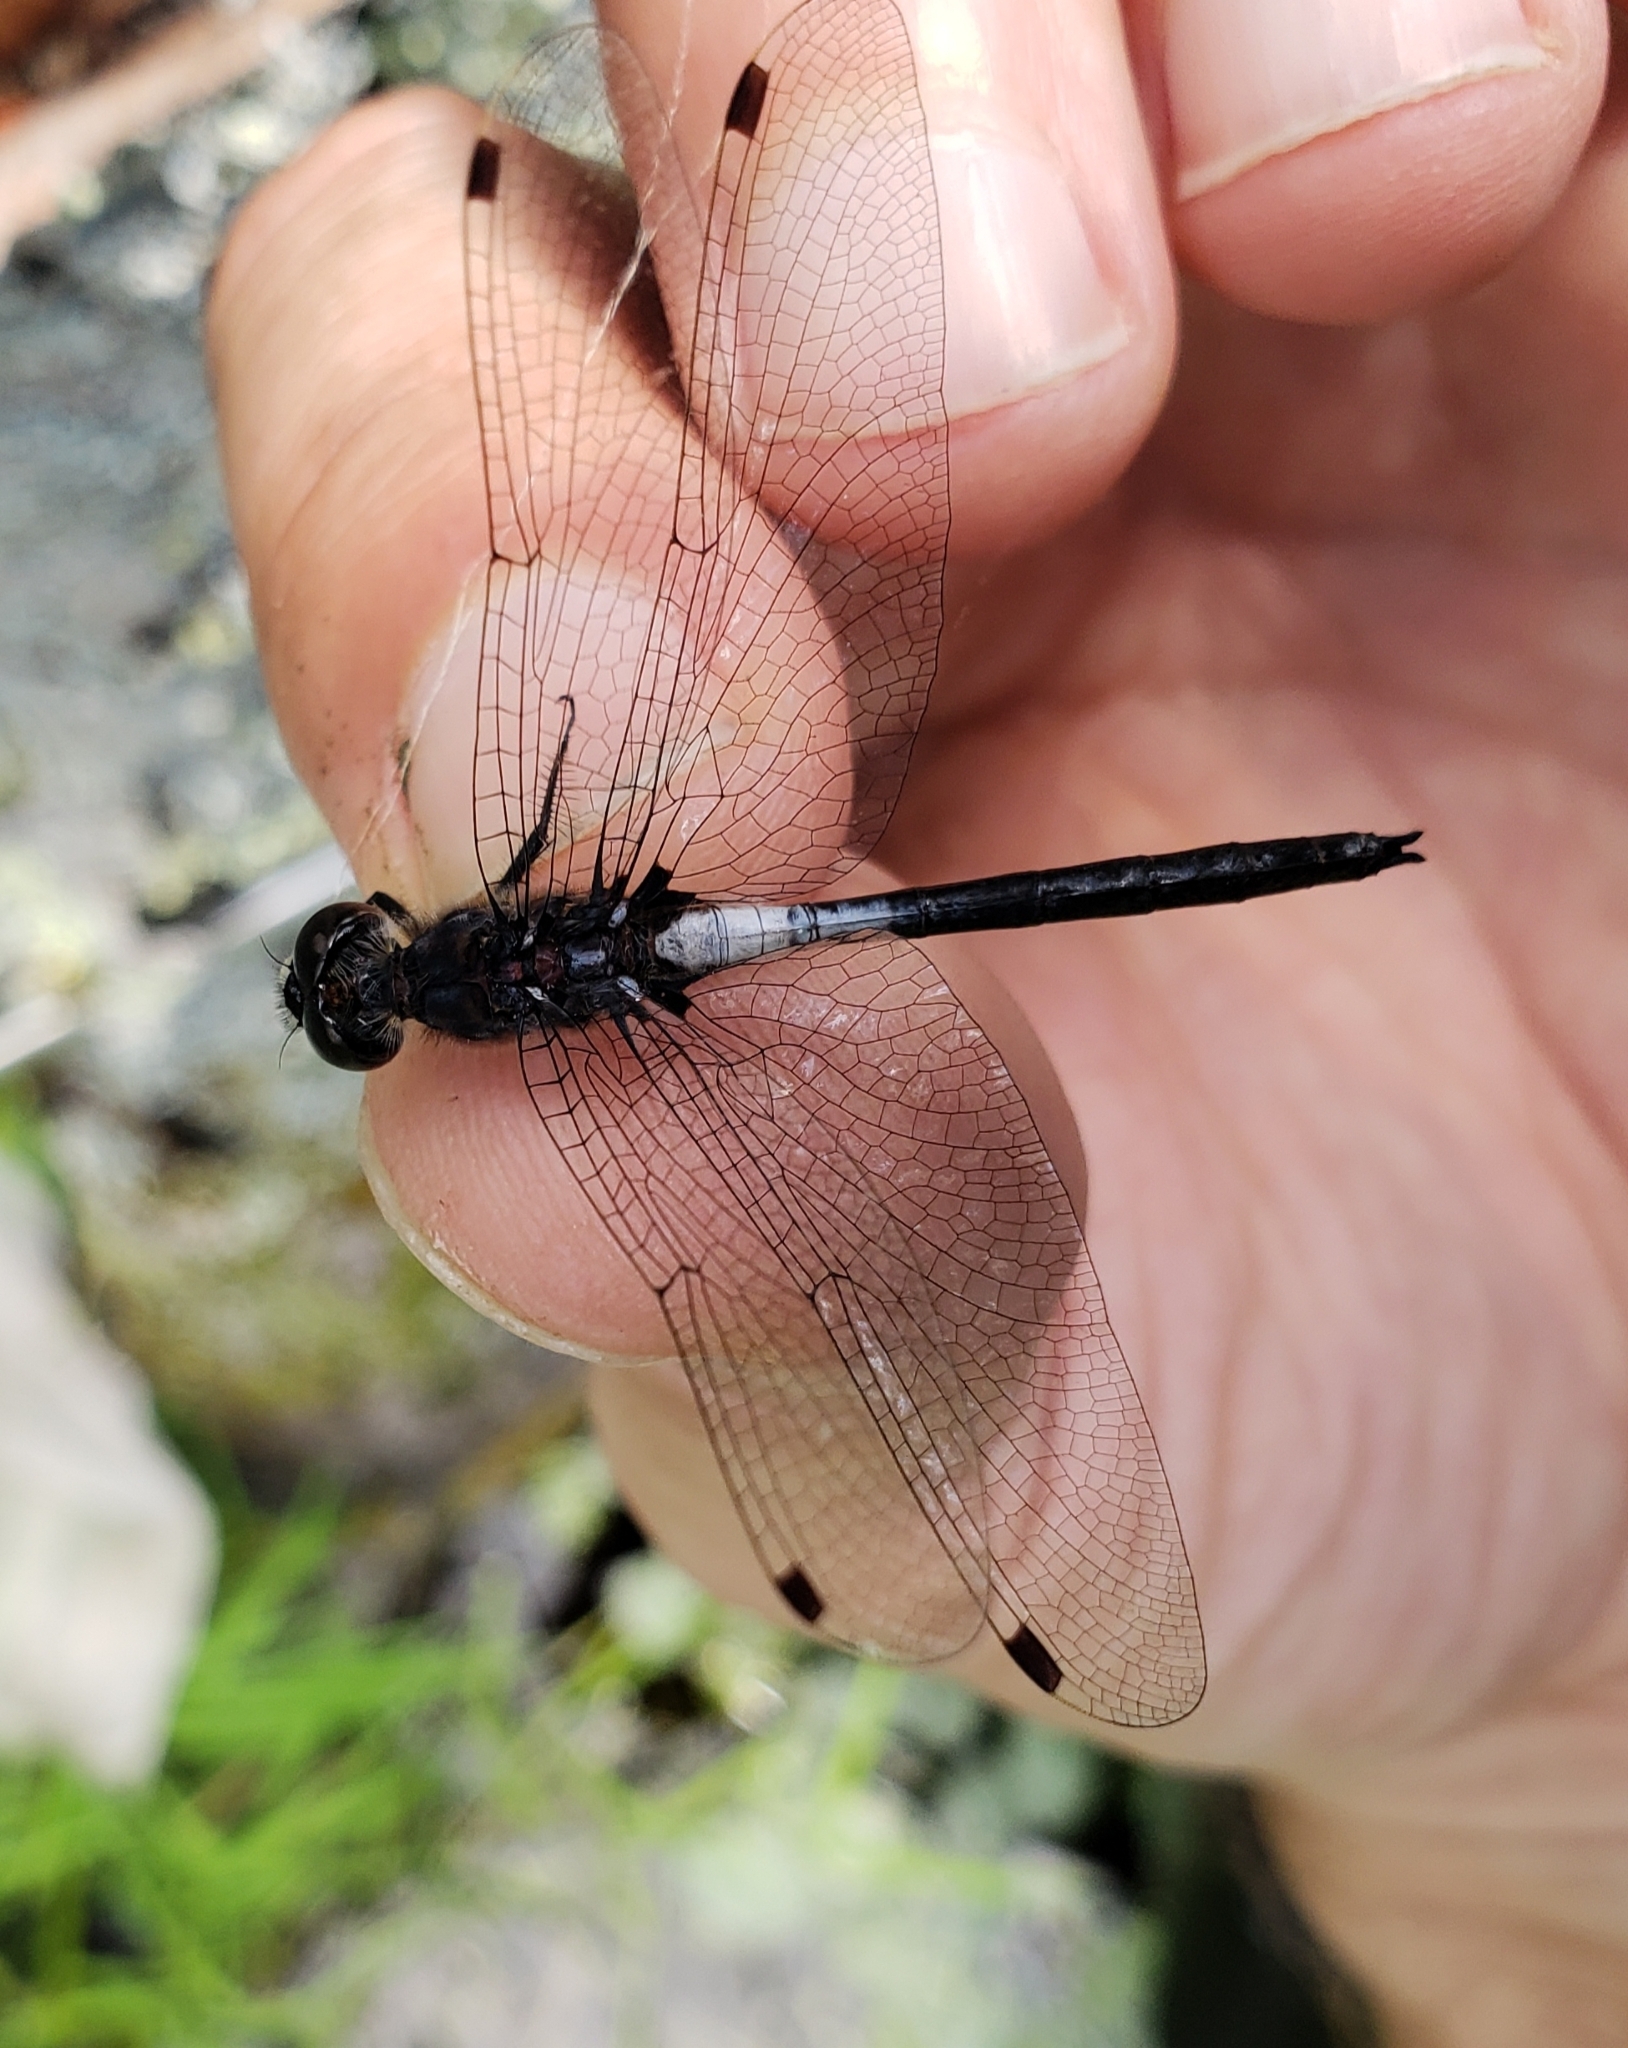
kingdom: Animalia
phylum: Arthropoda
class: Insecta
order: Odonata
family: Libellulidae
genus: Leucorrhinia
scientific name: Leucorrhinia proxima
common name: Belted whiteface
